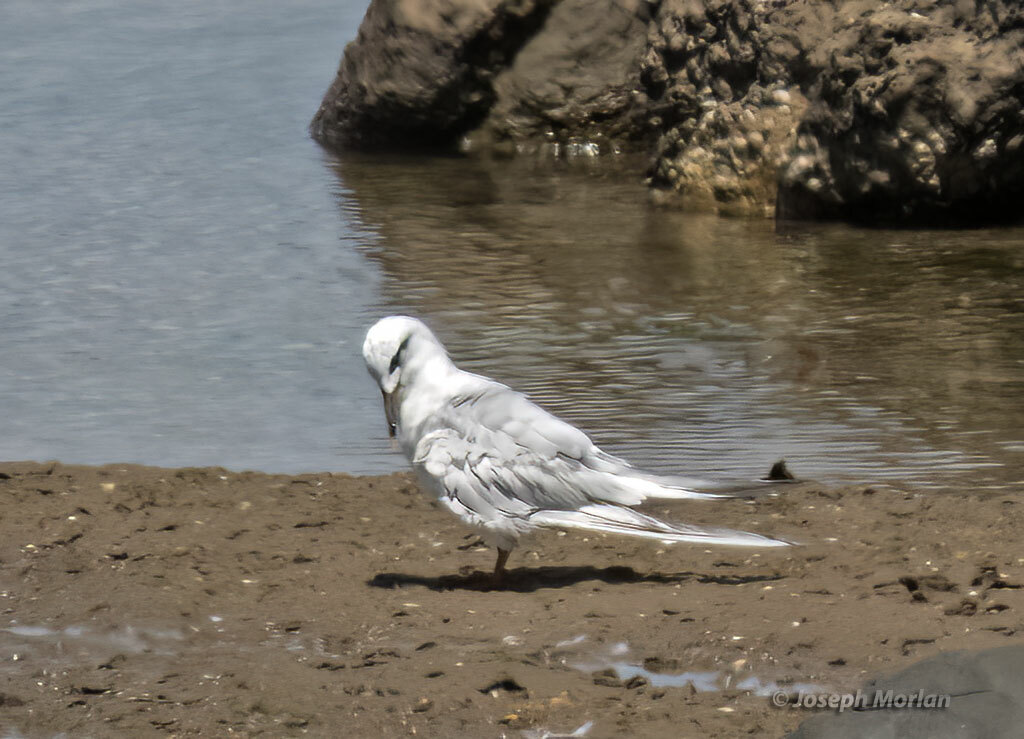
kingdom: Animalia
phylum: Chordata
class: Aves
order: Charadriiformes
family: Laridae
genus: Sterna
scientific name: Sterna trudeaui
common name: Snowy-crowned tern
